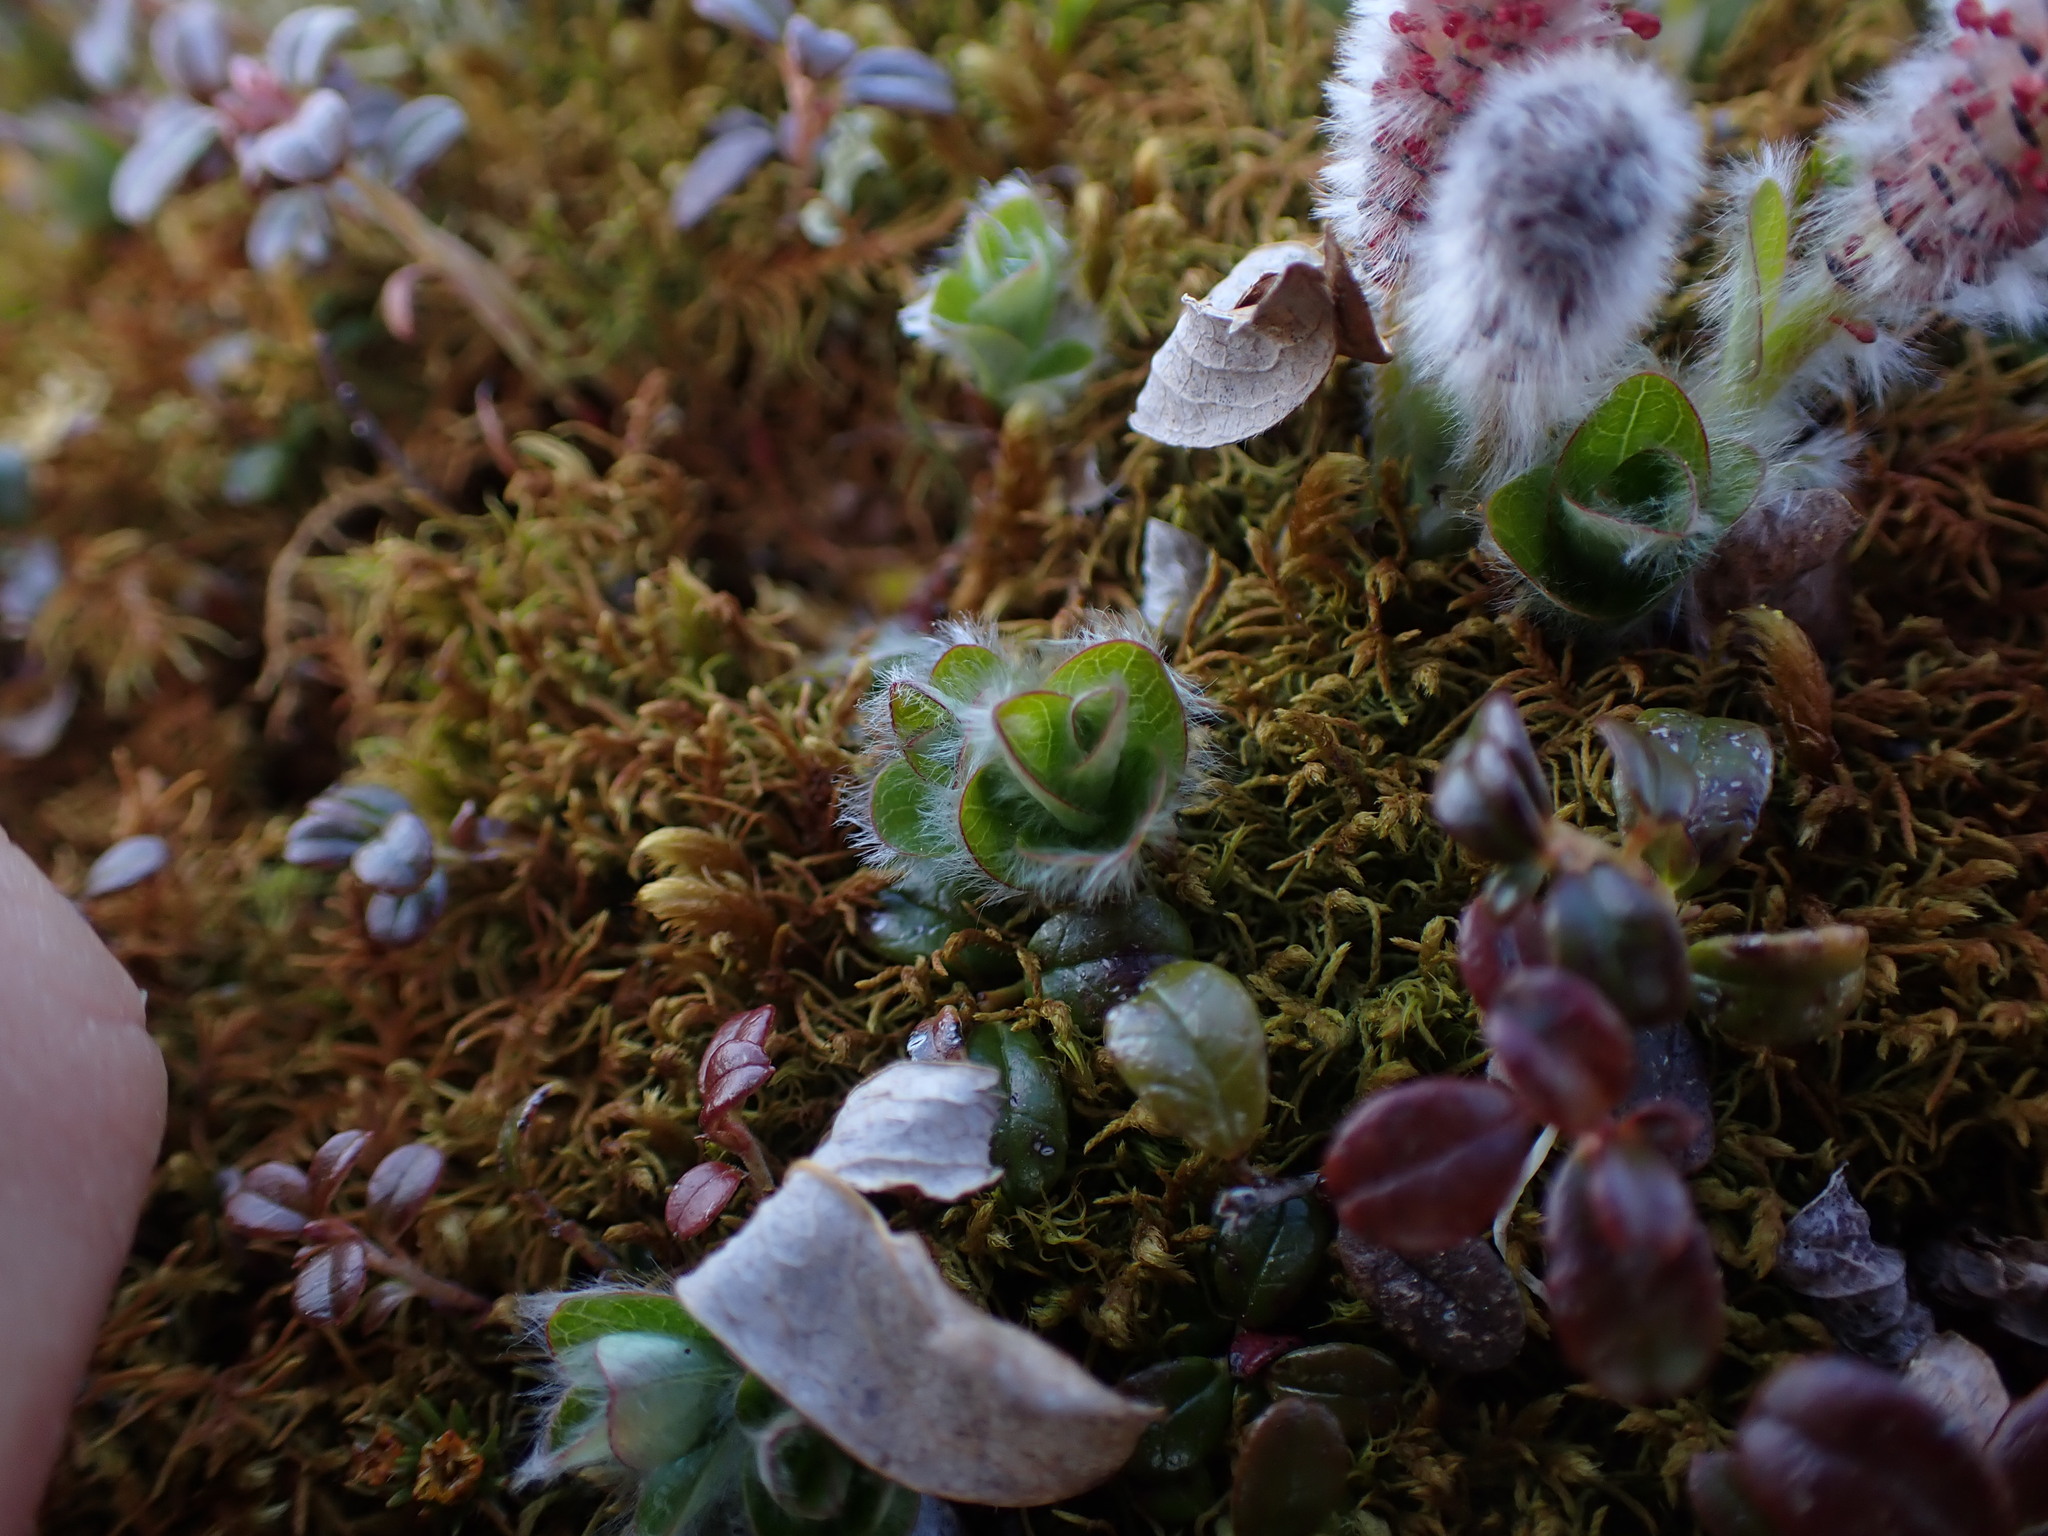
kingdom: Plantae
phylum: Tracheophyta
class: Magnoliopsida
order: Malpighiales
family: Salicaceae
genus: Salix
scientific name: Salix arctica
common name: Arctic willow
